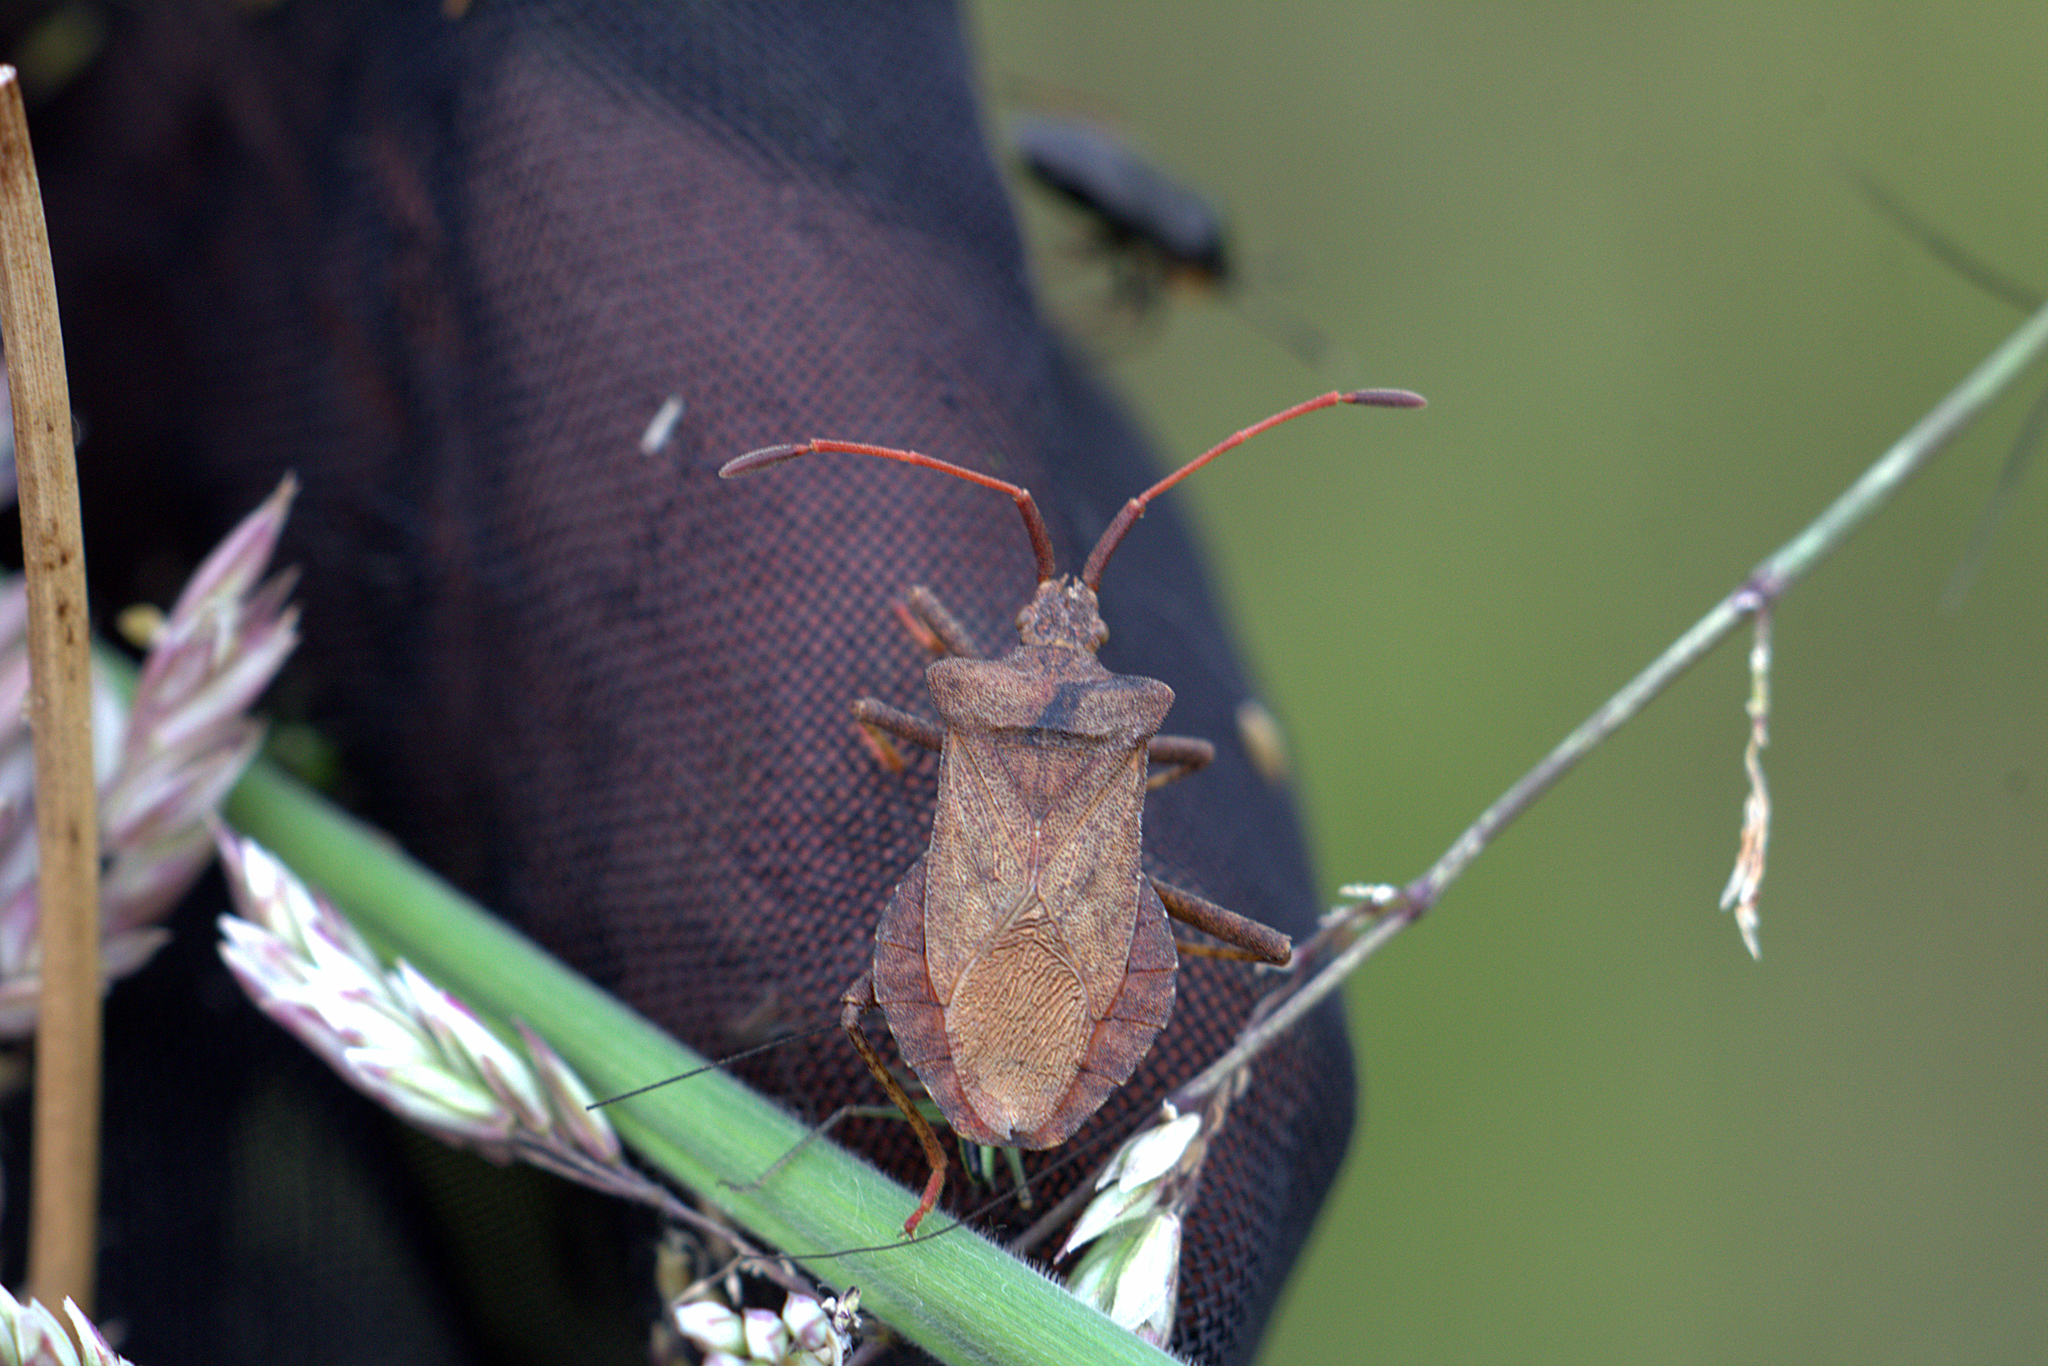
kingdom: Animalia
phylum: Arthropoda
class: Insecta
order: Hemiptera
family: Coreidae
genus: Coreus
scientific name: Coreus marginatus
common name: Dock bug
